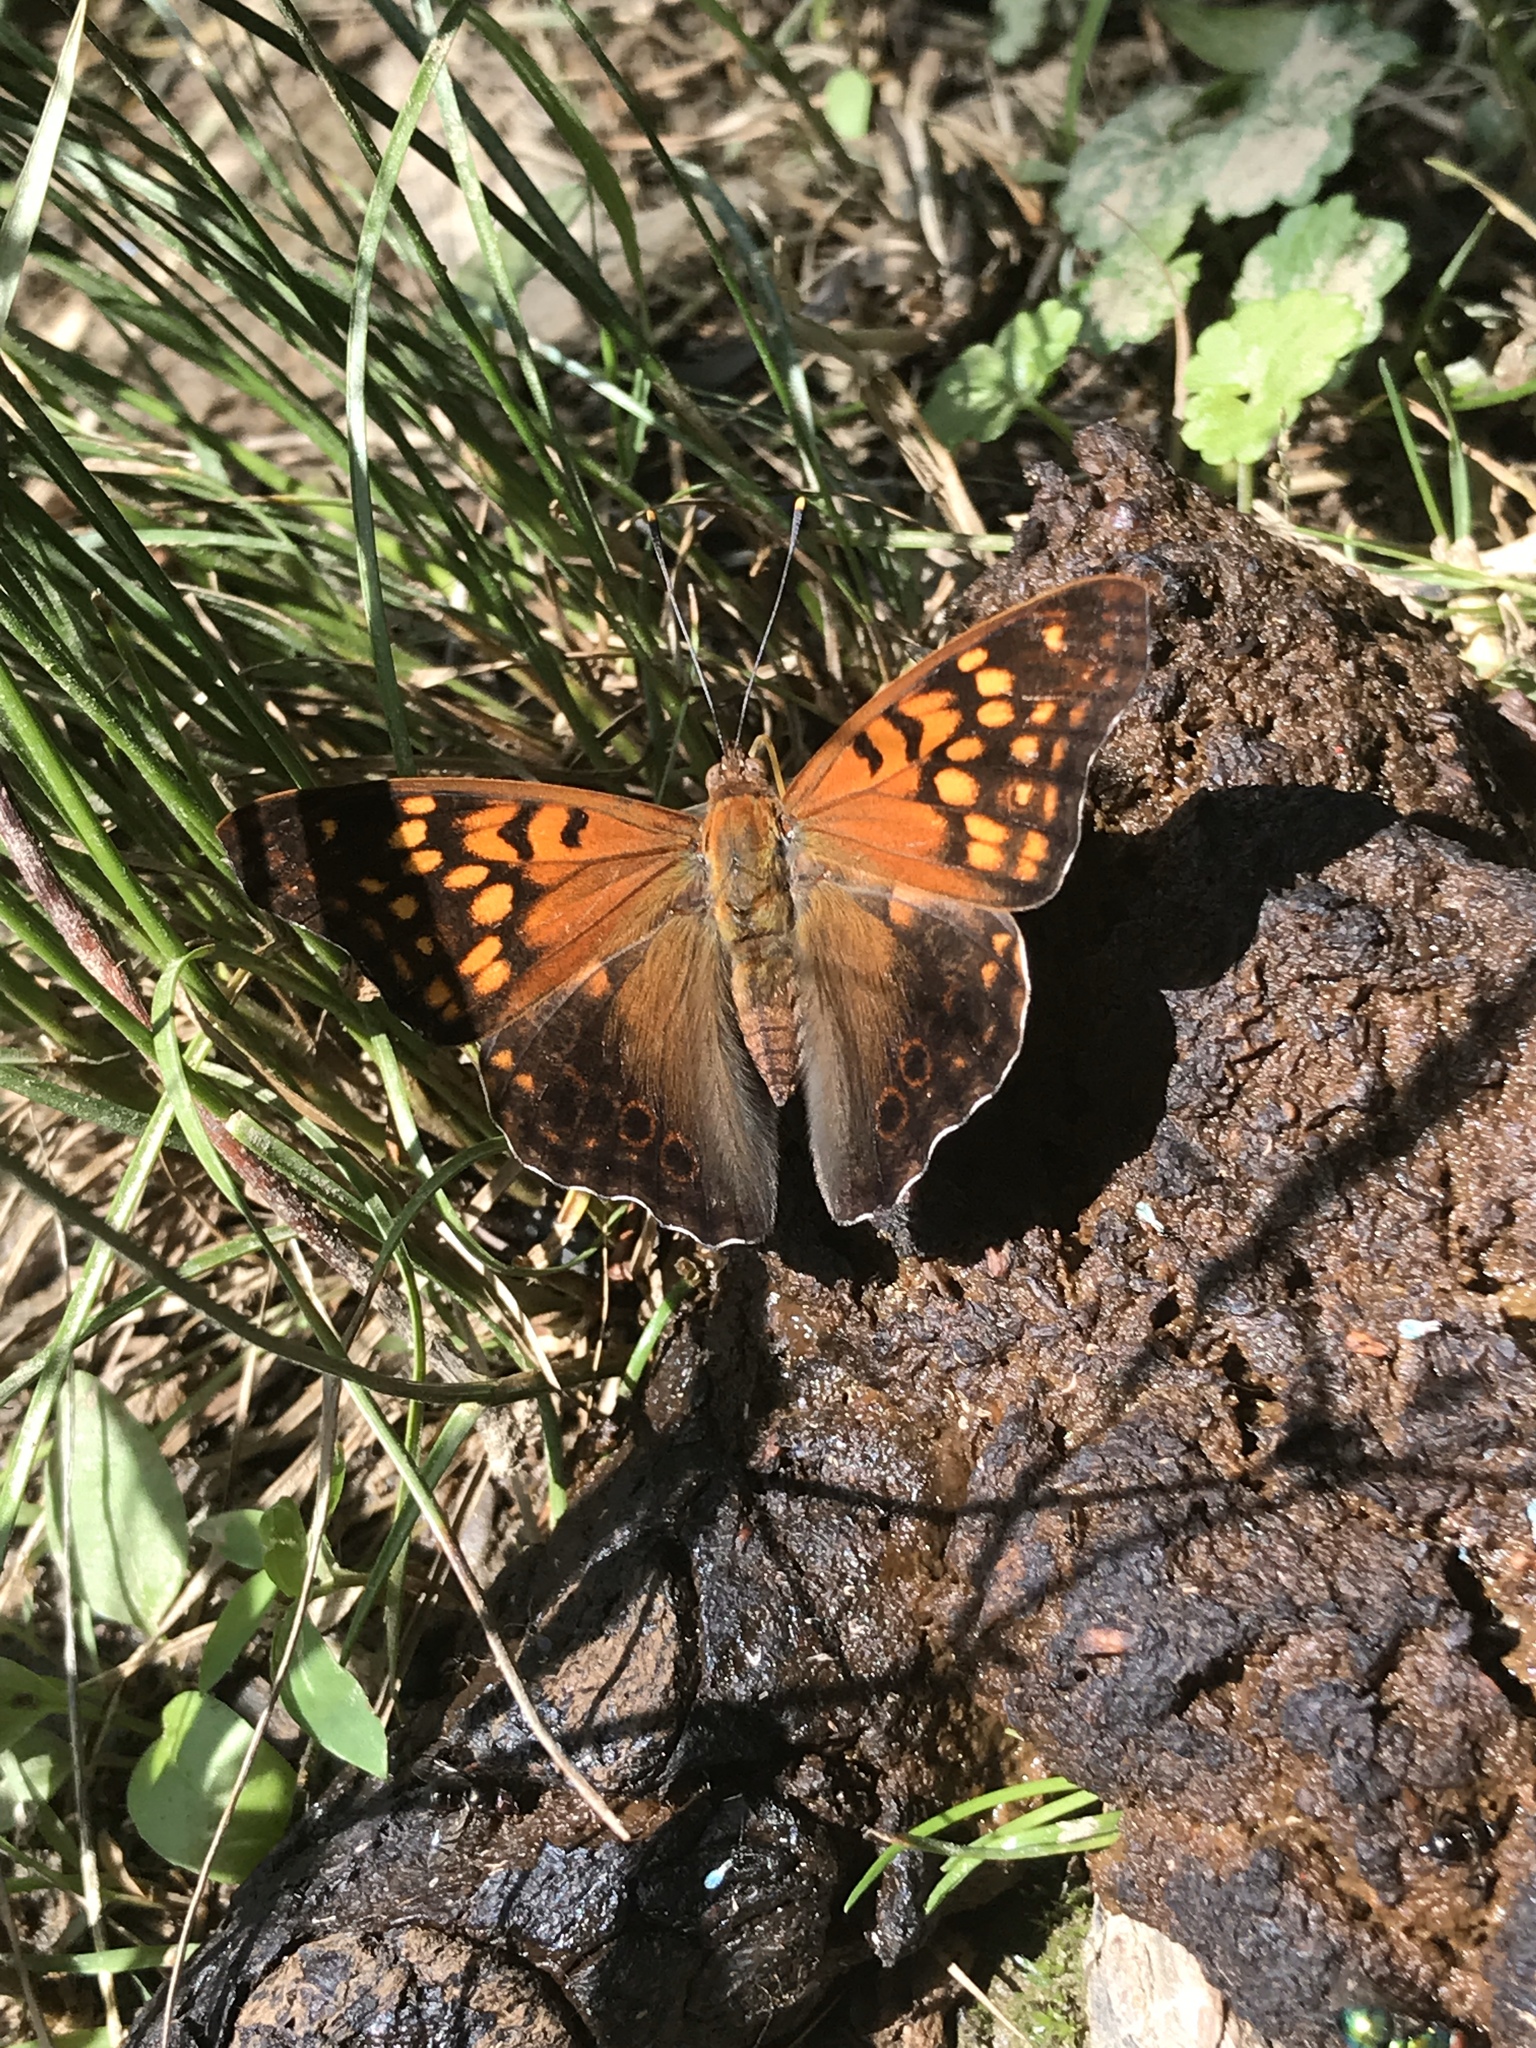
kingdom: Animalia
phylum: Arthropoda
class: Insecta
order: Lepidoptera
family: Nymphalidae
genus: Asterocampa
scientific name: Asterocampa clyton
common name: Tawny emperor
